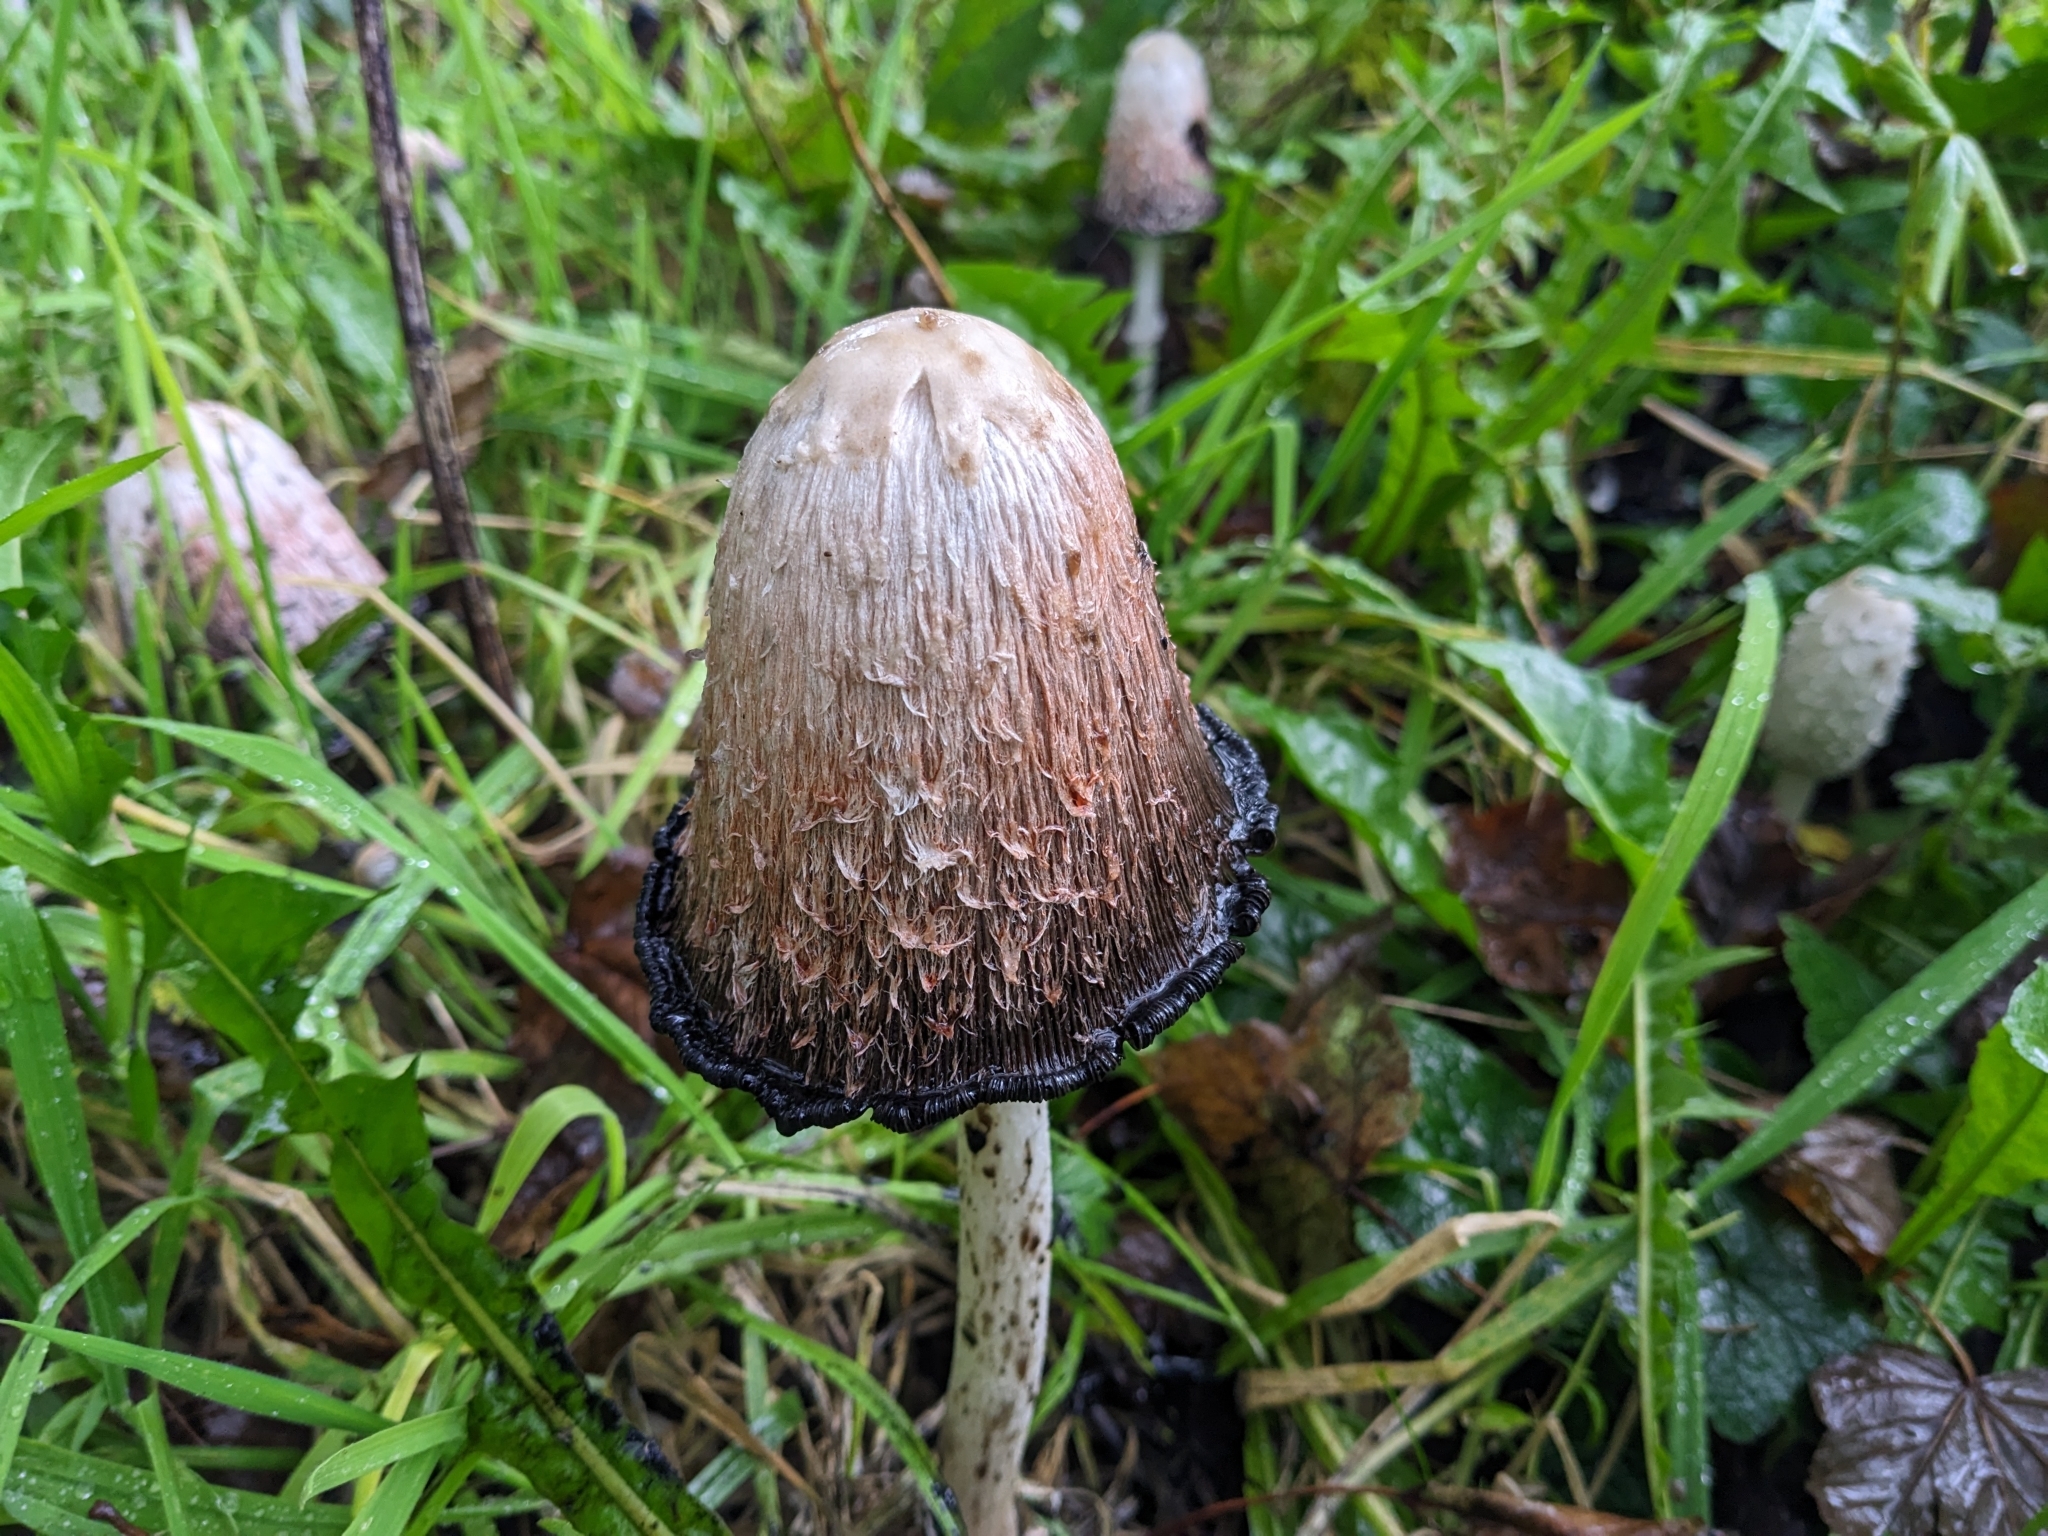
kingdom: Fungi
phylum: Basidiomycota
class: Agaricomycetes
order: Agaricales
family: Agaricaceae
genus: Coprinus
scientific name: Coprinus comatus
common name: Lawyer's wig
